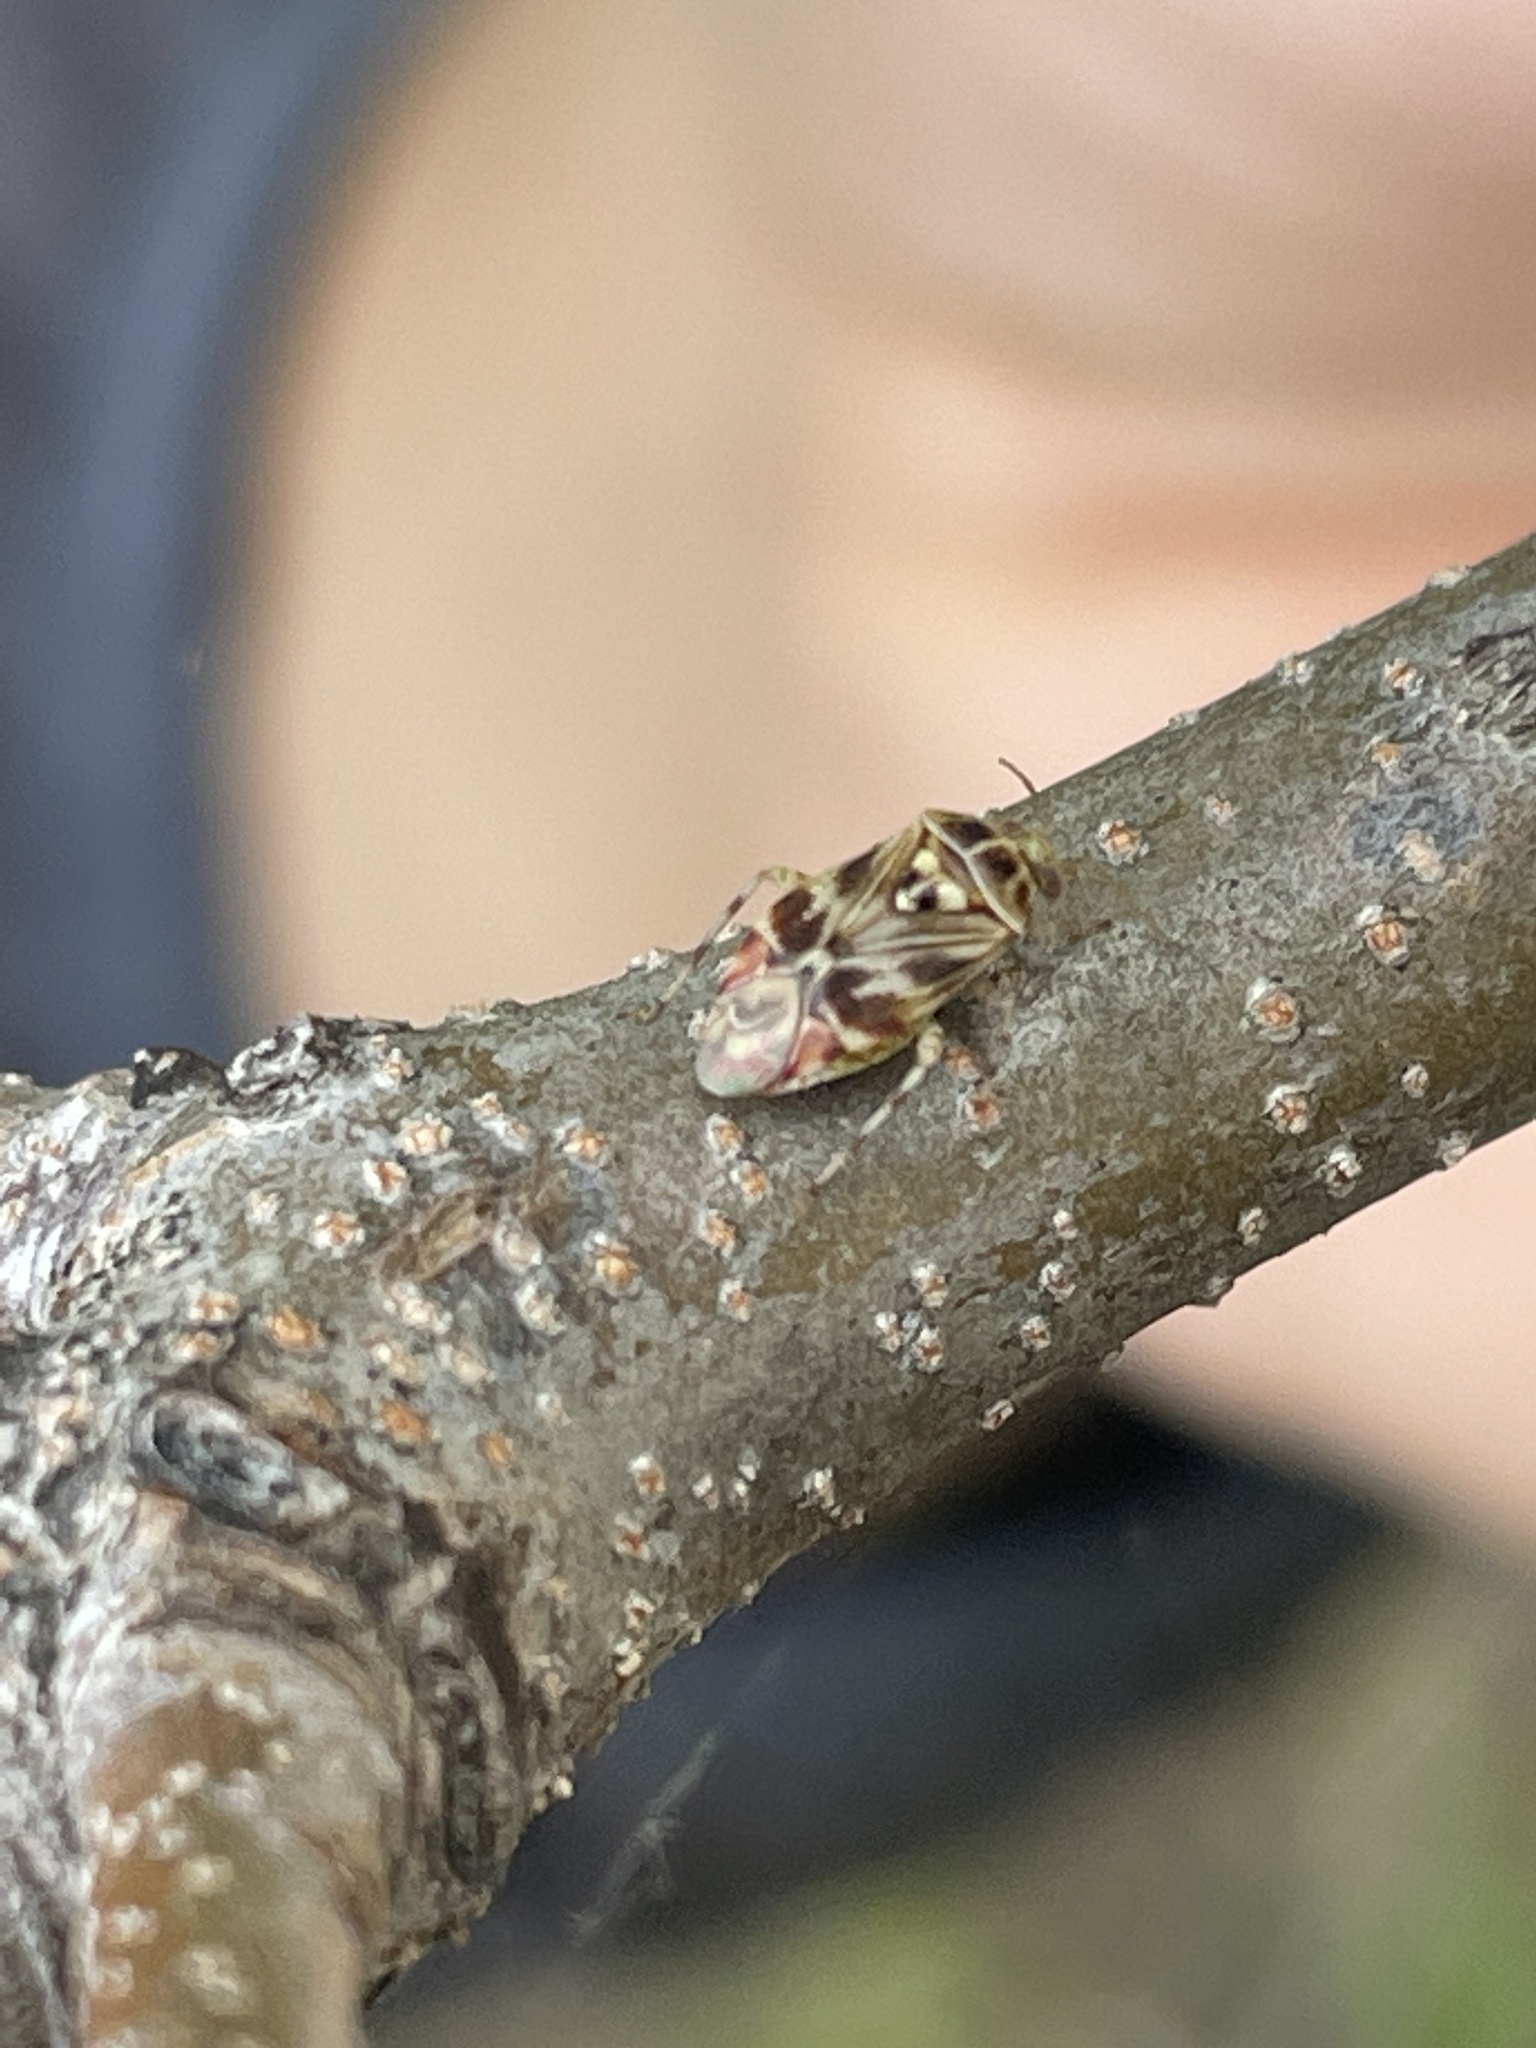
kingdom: Animalia
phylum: Arthropoda
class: Insecta
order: Hemiptera
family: Miridae
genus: Tropidosteptes
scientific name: Tropidosteptes quercicola
